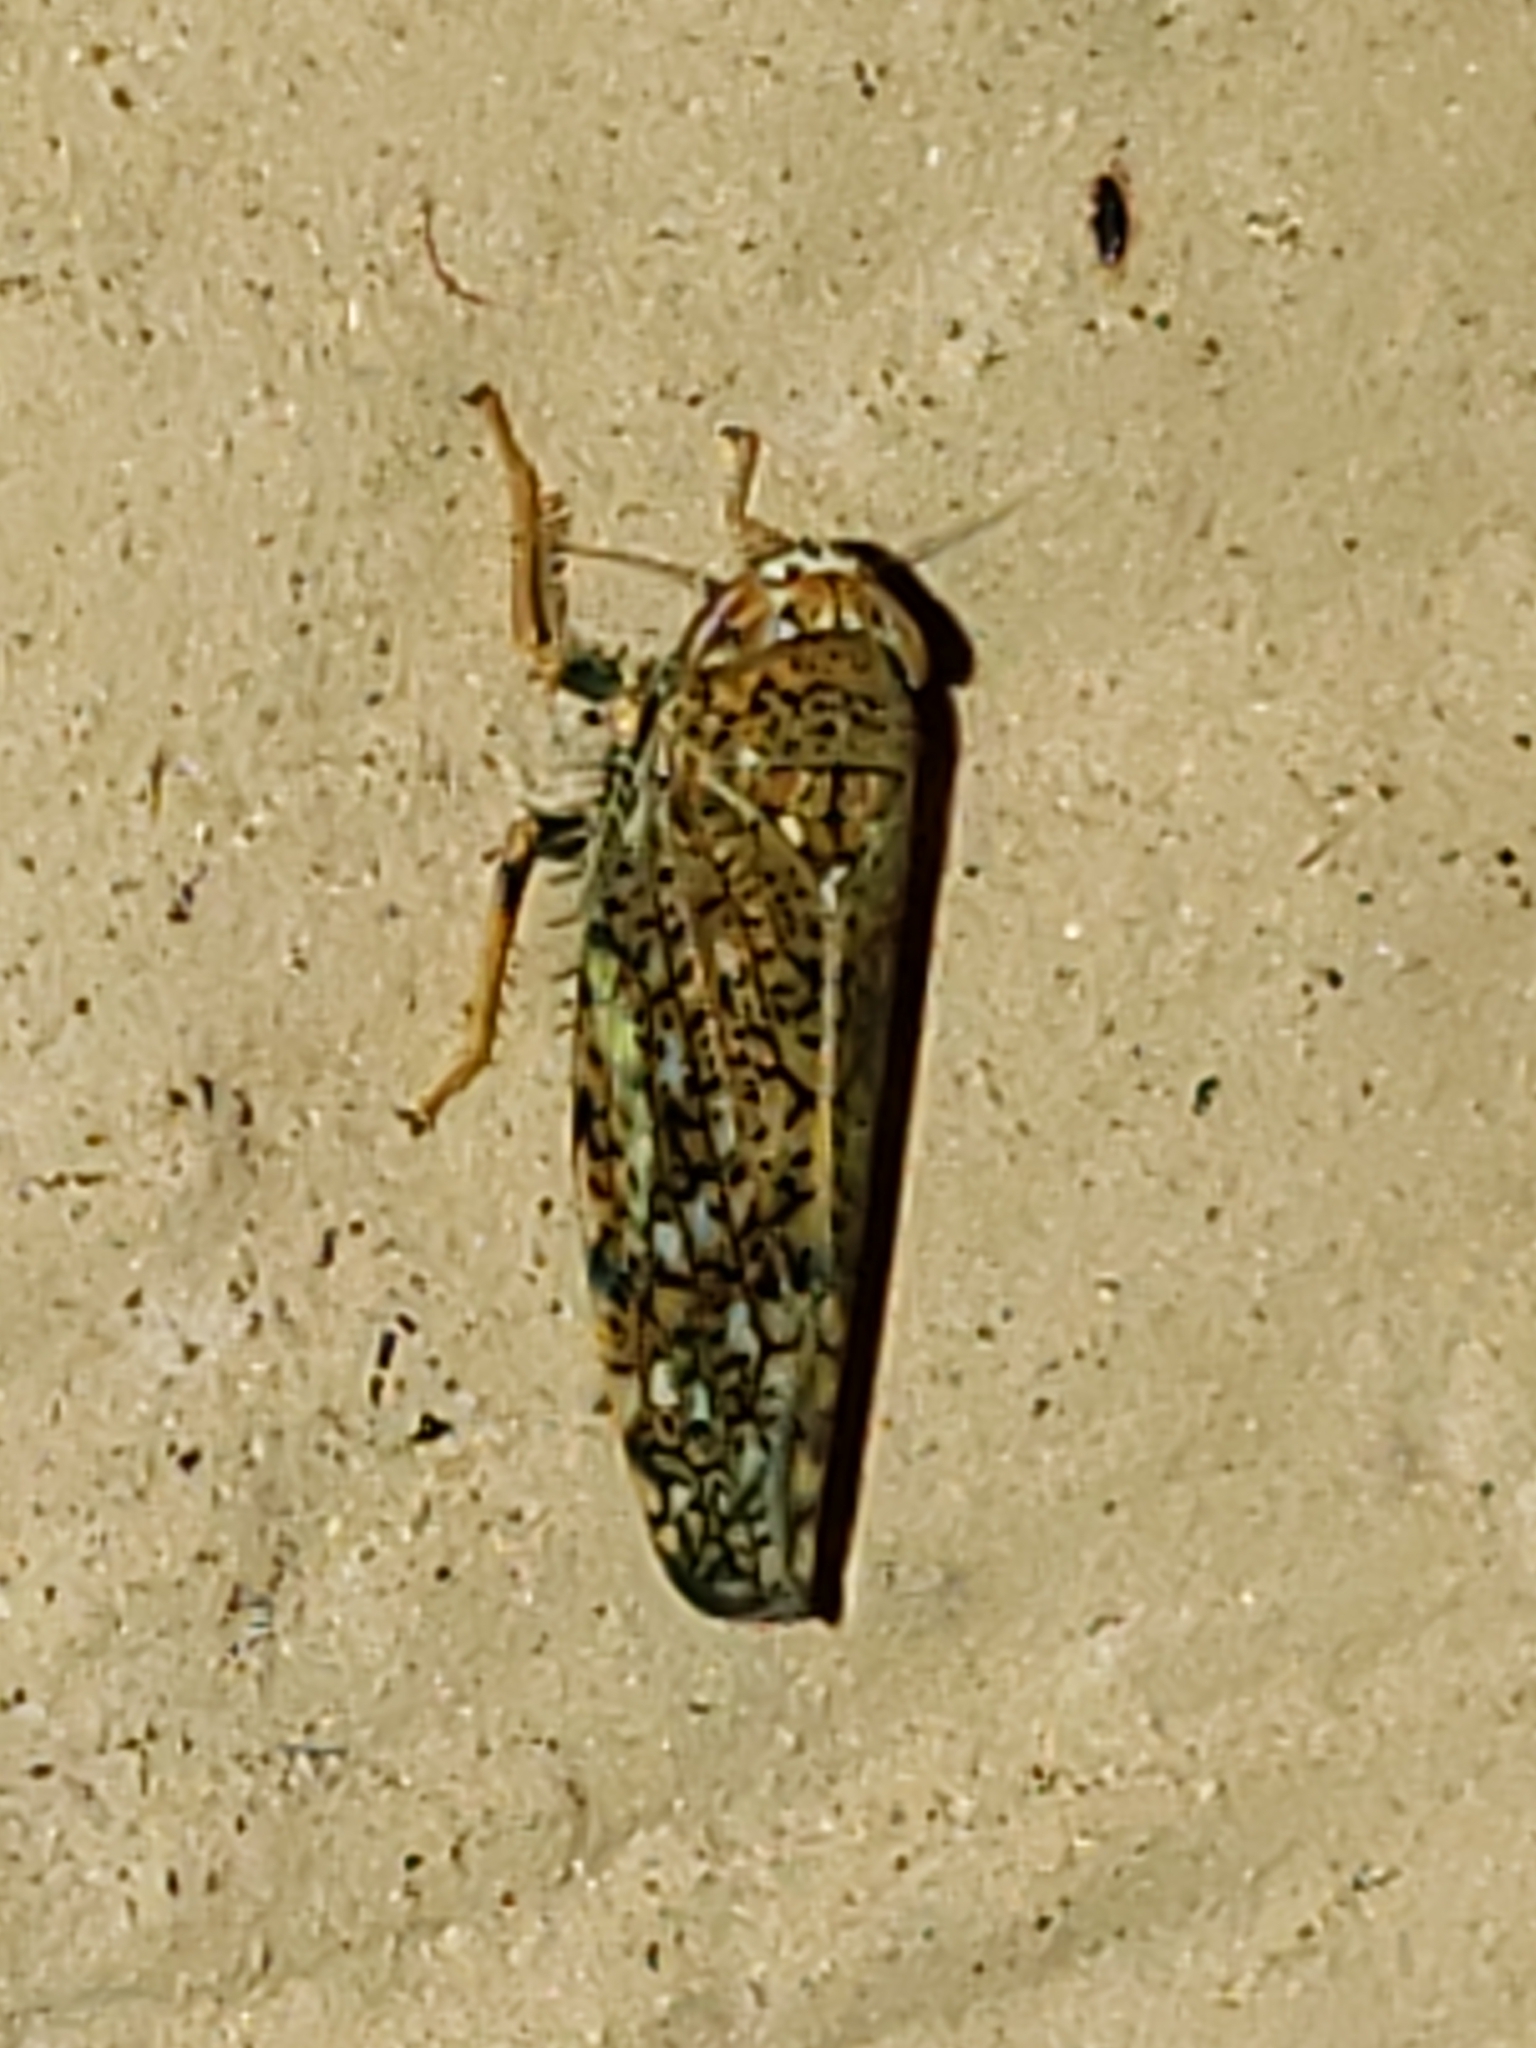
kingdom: Animalia
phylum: Arthropoda
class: Insecta
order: Hemiptera
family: Cicadellidae
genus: Orientus
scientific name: Orientus ishidae
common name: Japanese leafhopper
